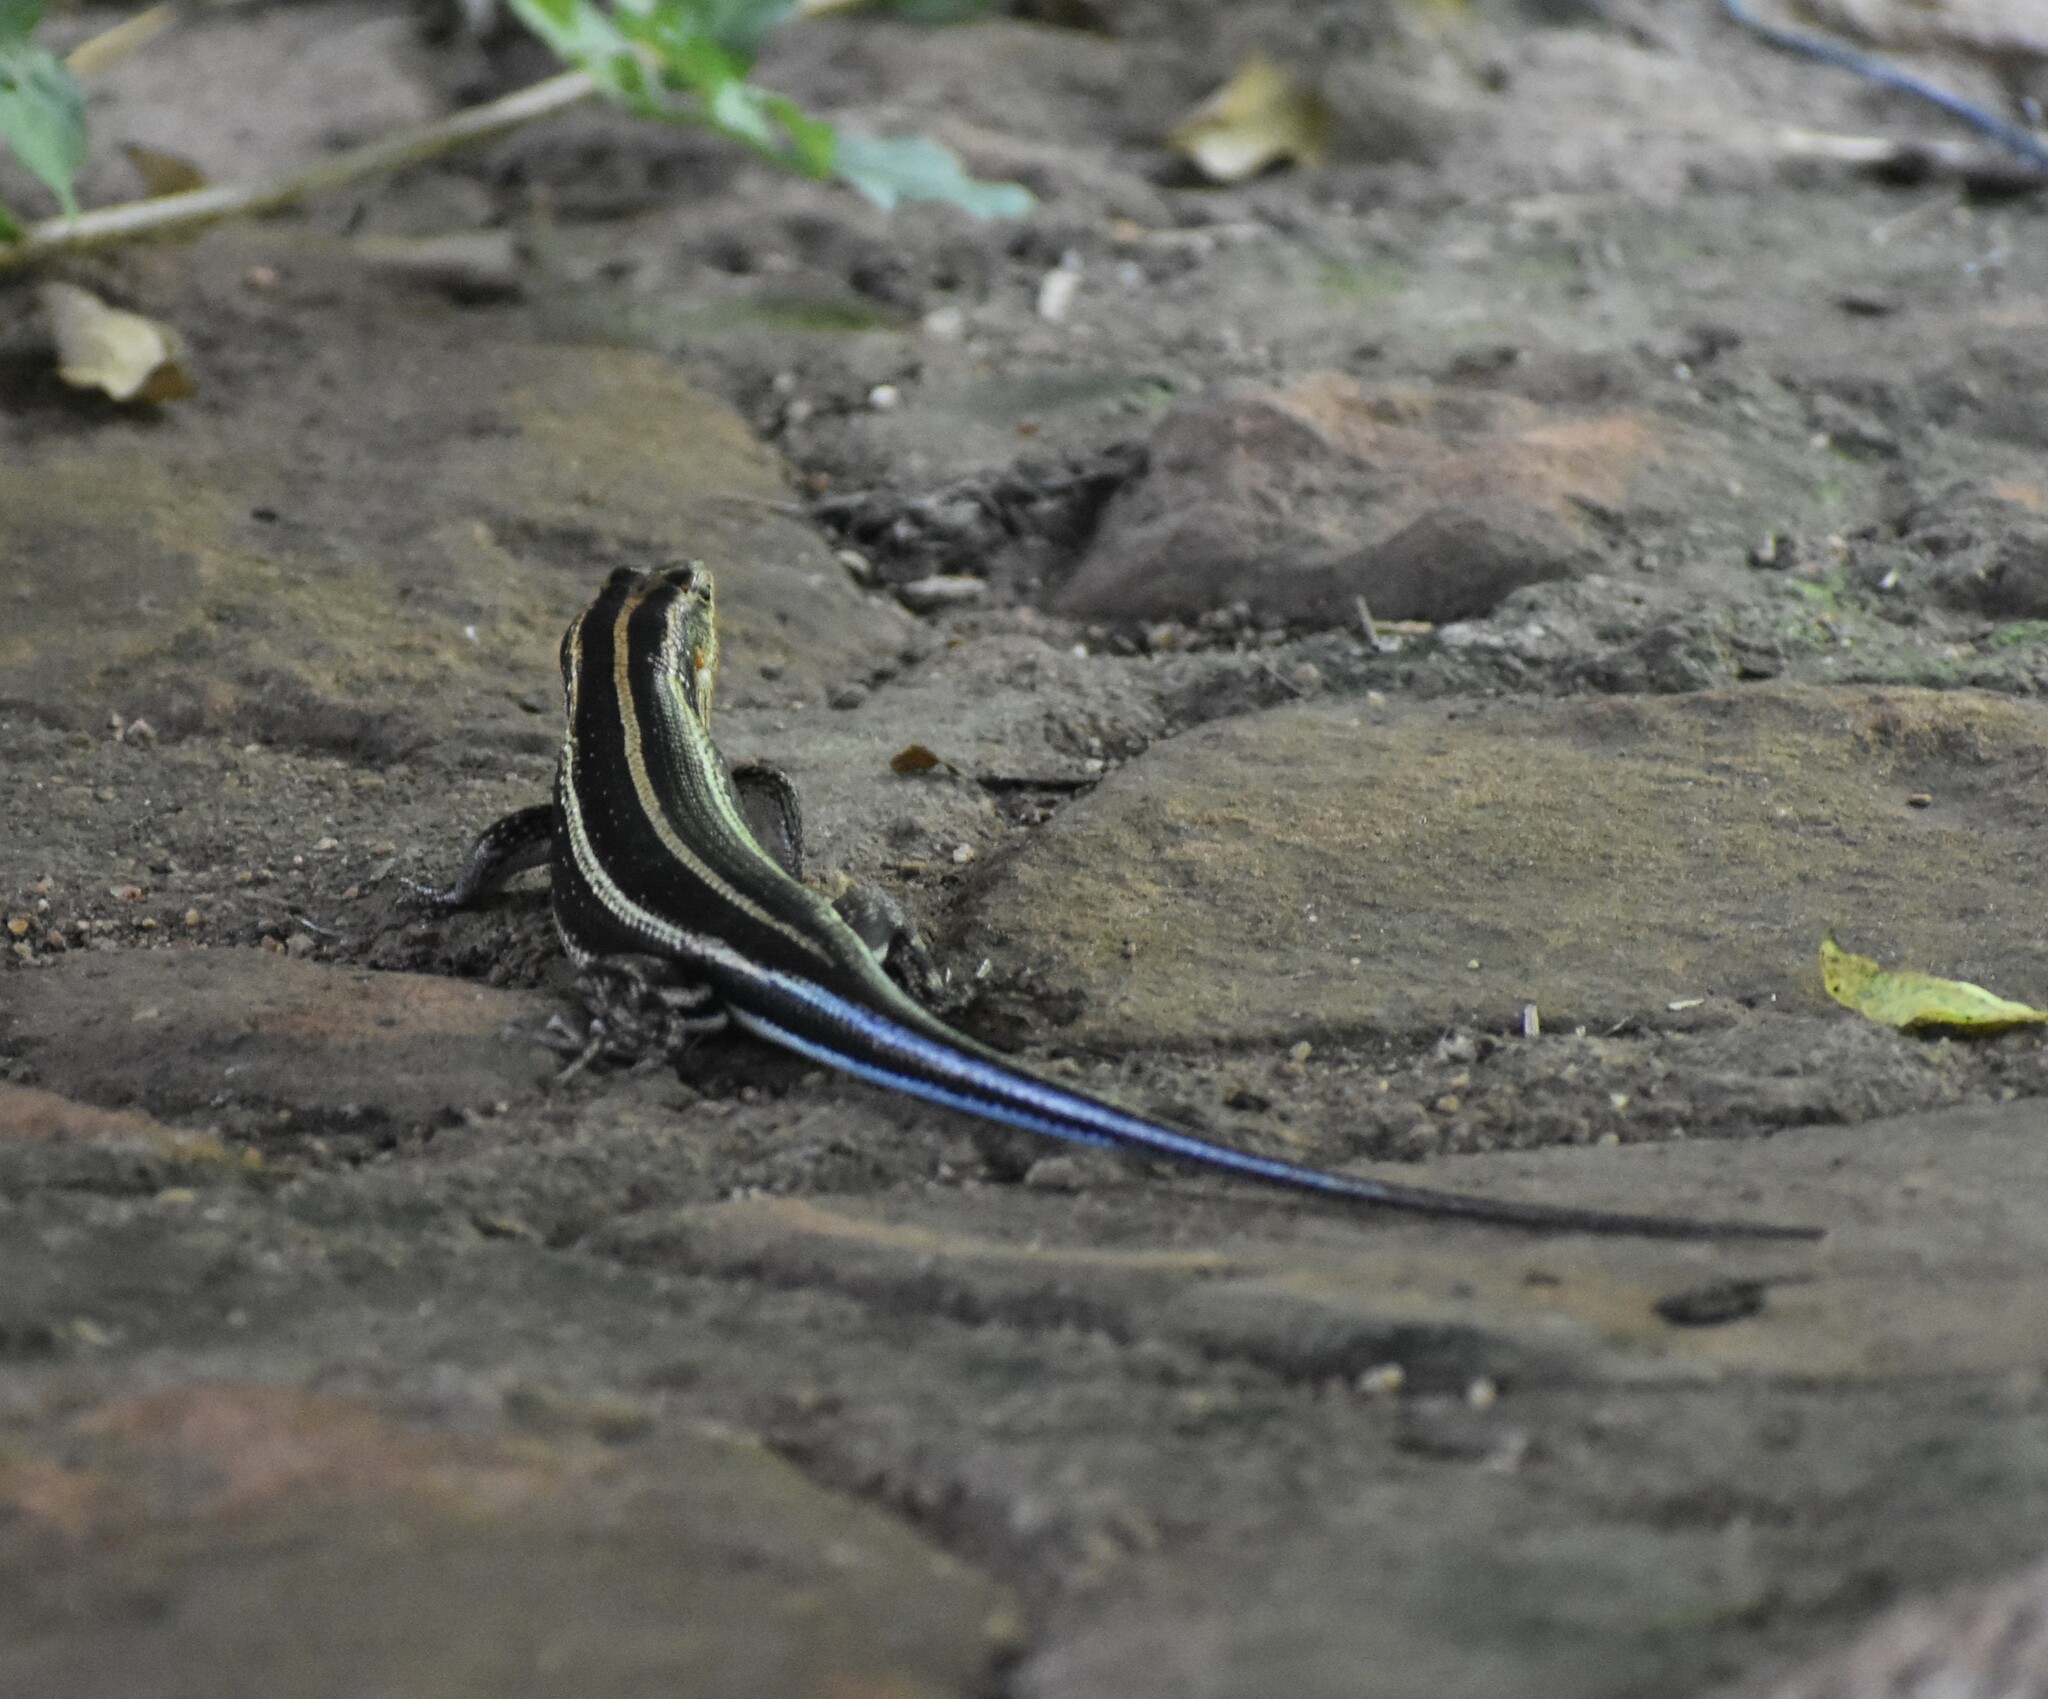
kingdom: Animalia
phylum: Chordata
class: Squamata
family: Scincidae
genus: Trachylepis
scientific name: Trachylepis margaritifera
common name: Rainbow skink
